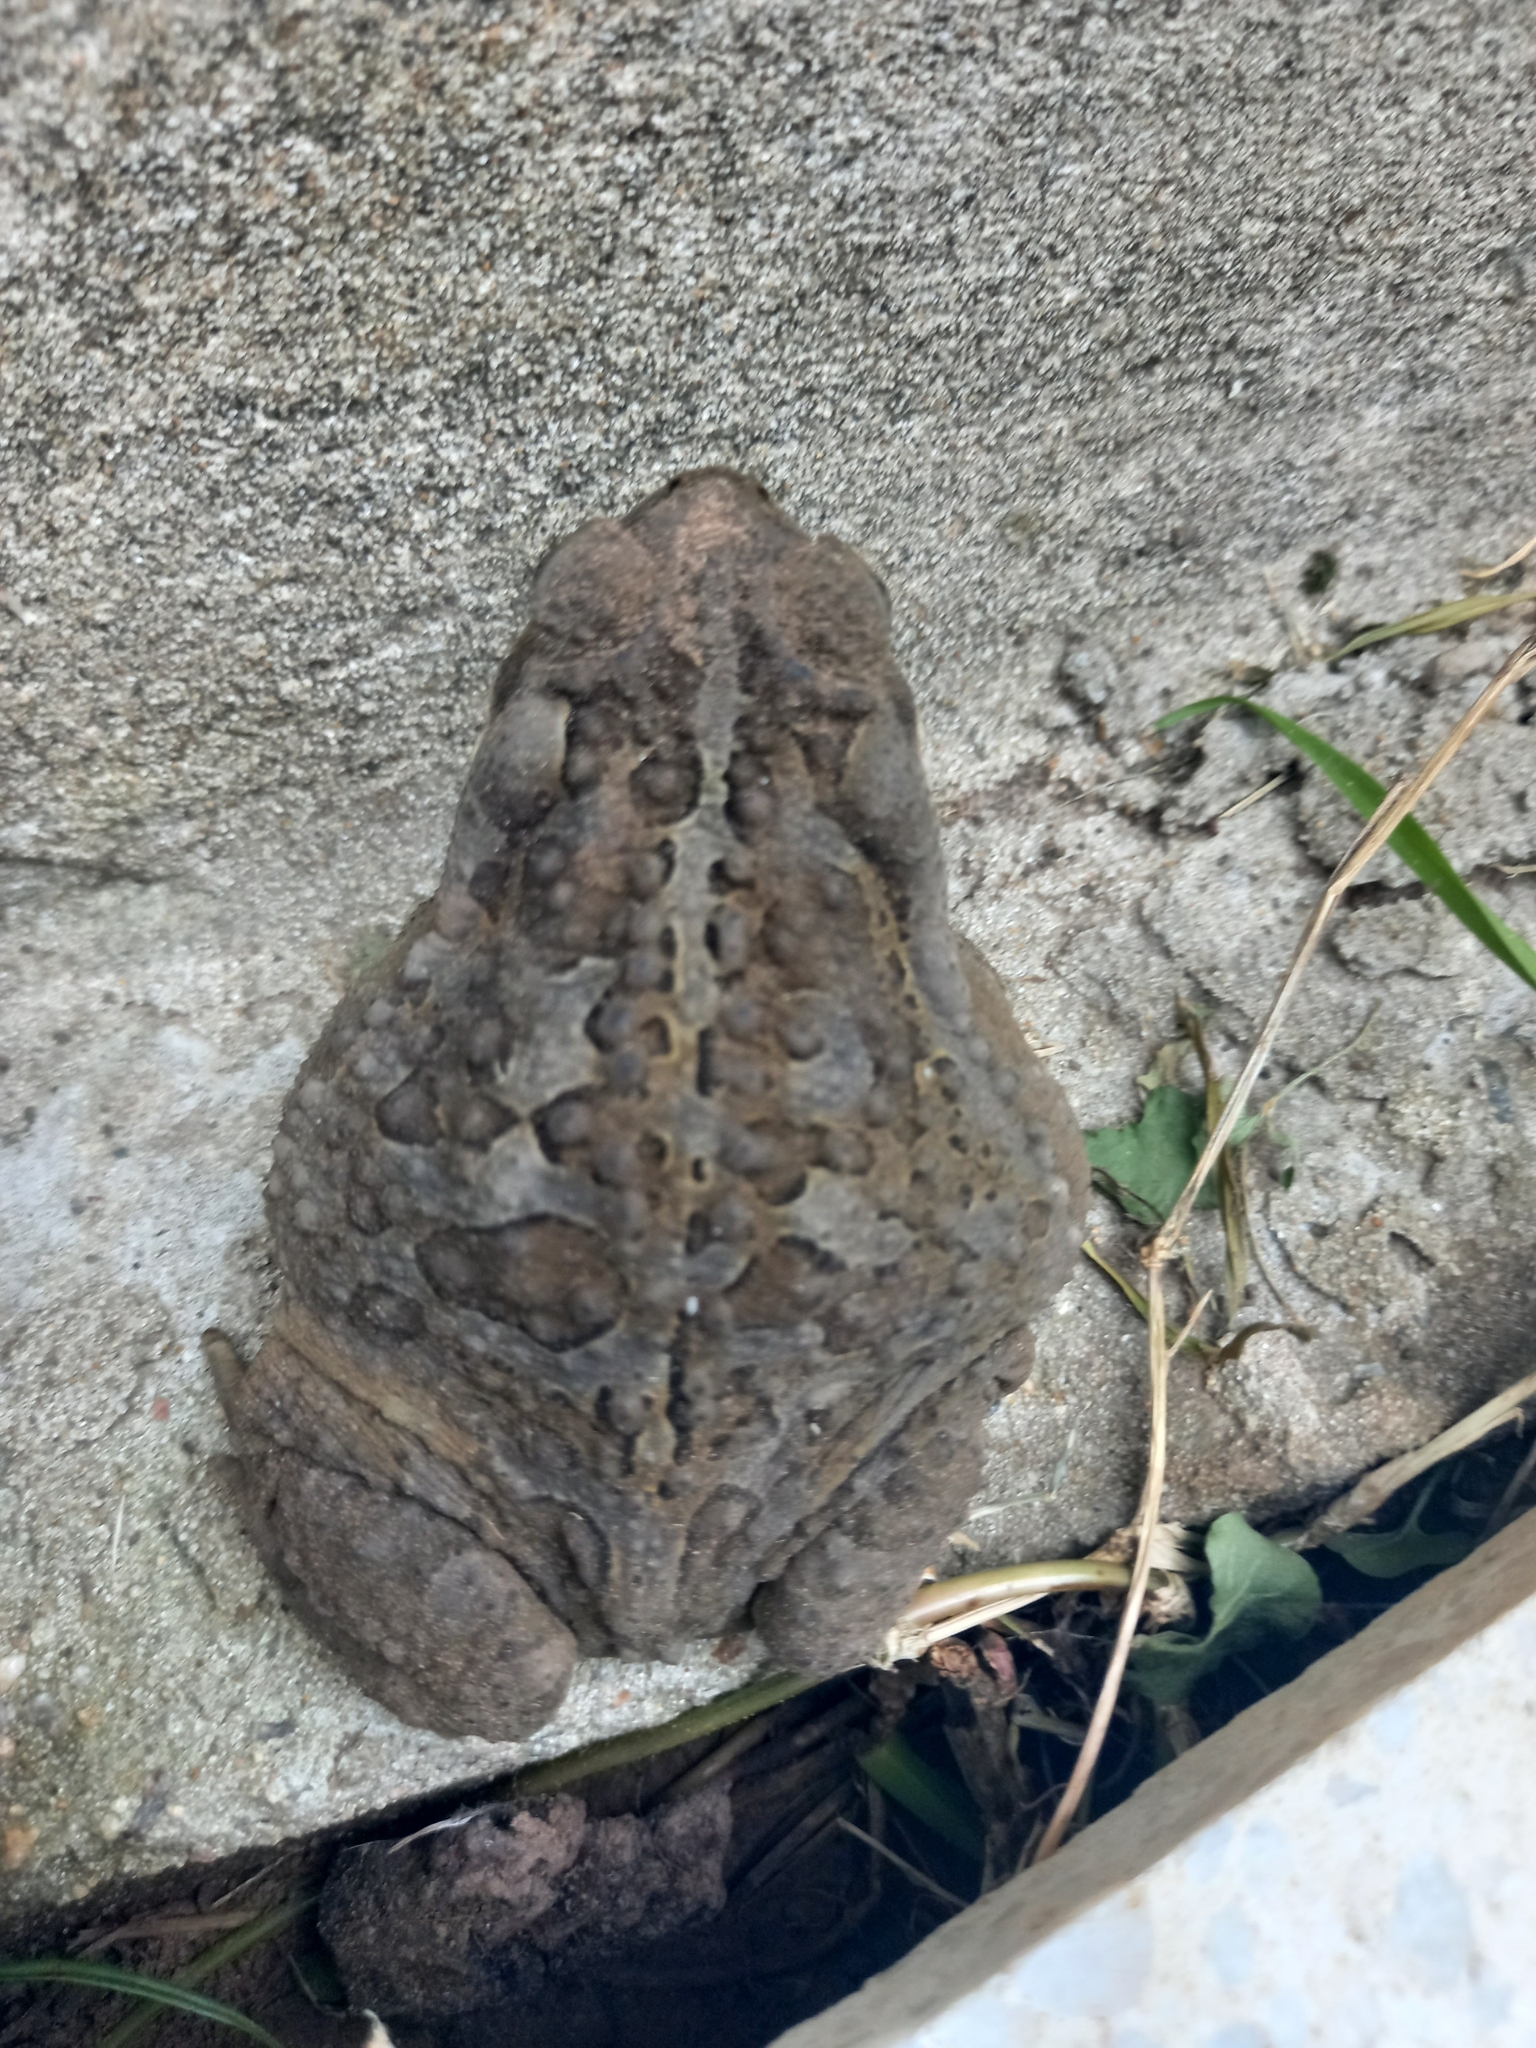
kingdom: Animalia
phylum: Chordata
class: Amphibia
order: Anura
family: Bufonidae
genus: Rhinella
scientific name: Rhinella arenarum
